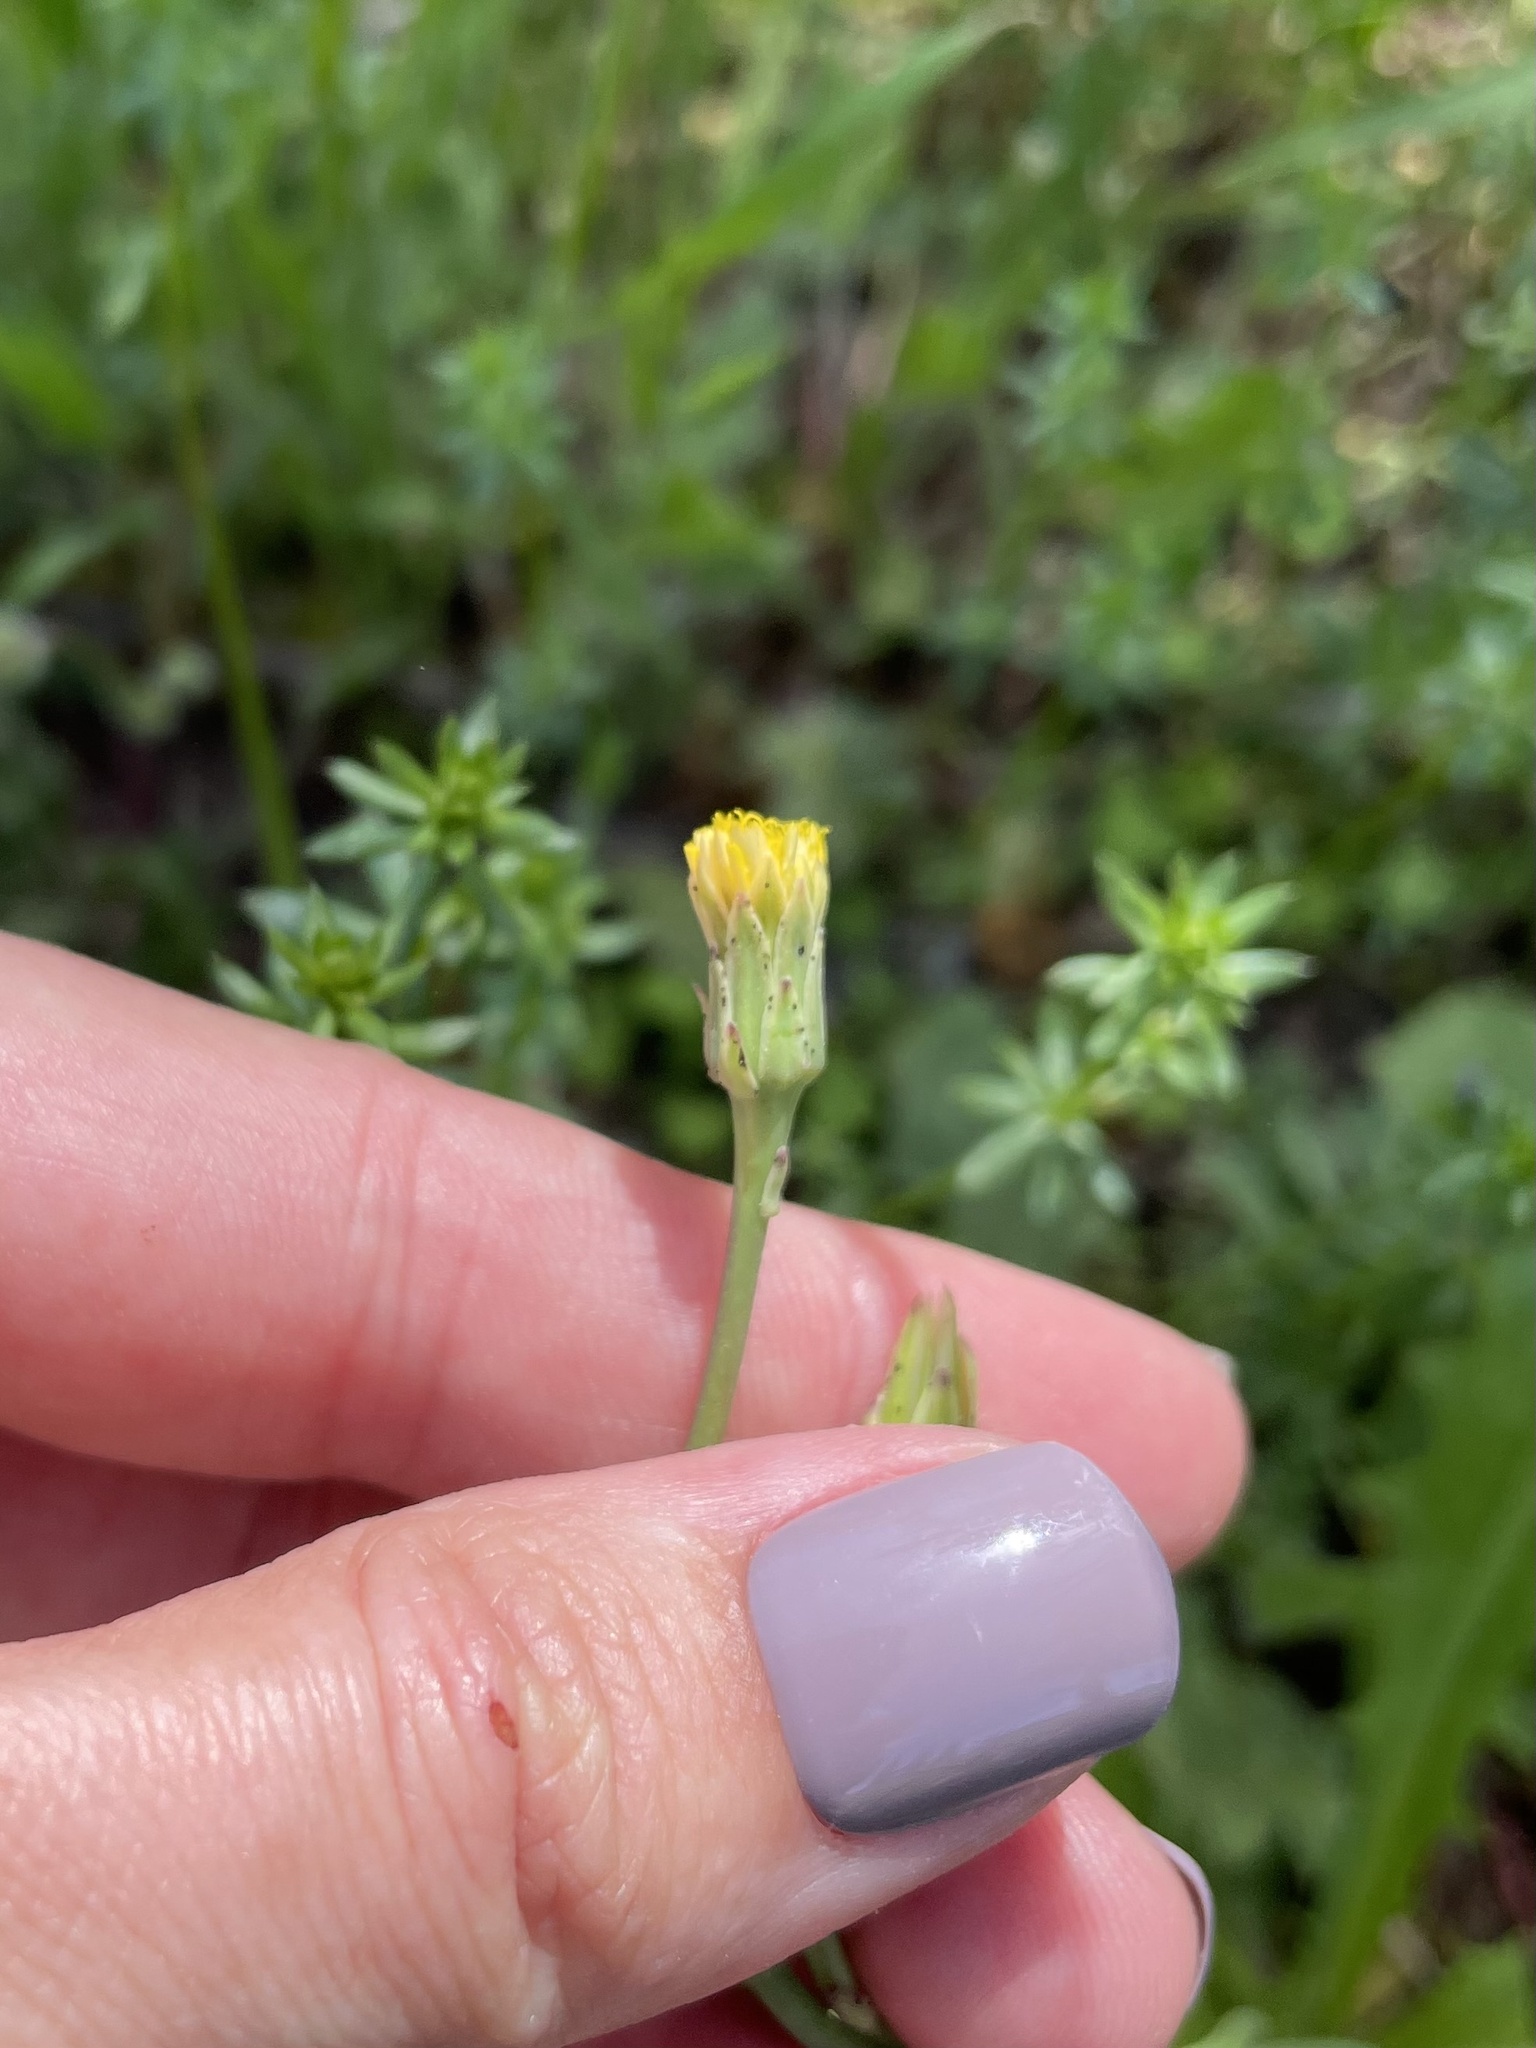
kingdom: Plantae
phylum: Tracheophyta
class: Magnoliopsida
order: Asterales
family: Asteraceae
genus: Hypochaeris
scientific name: Hypochaeris glabra
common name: Smooth catsear
